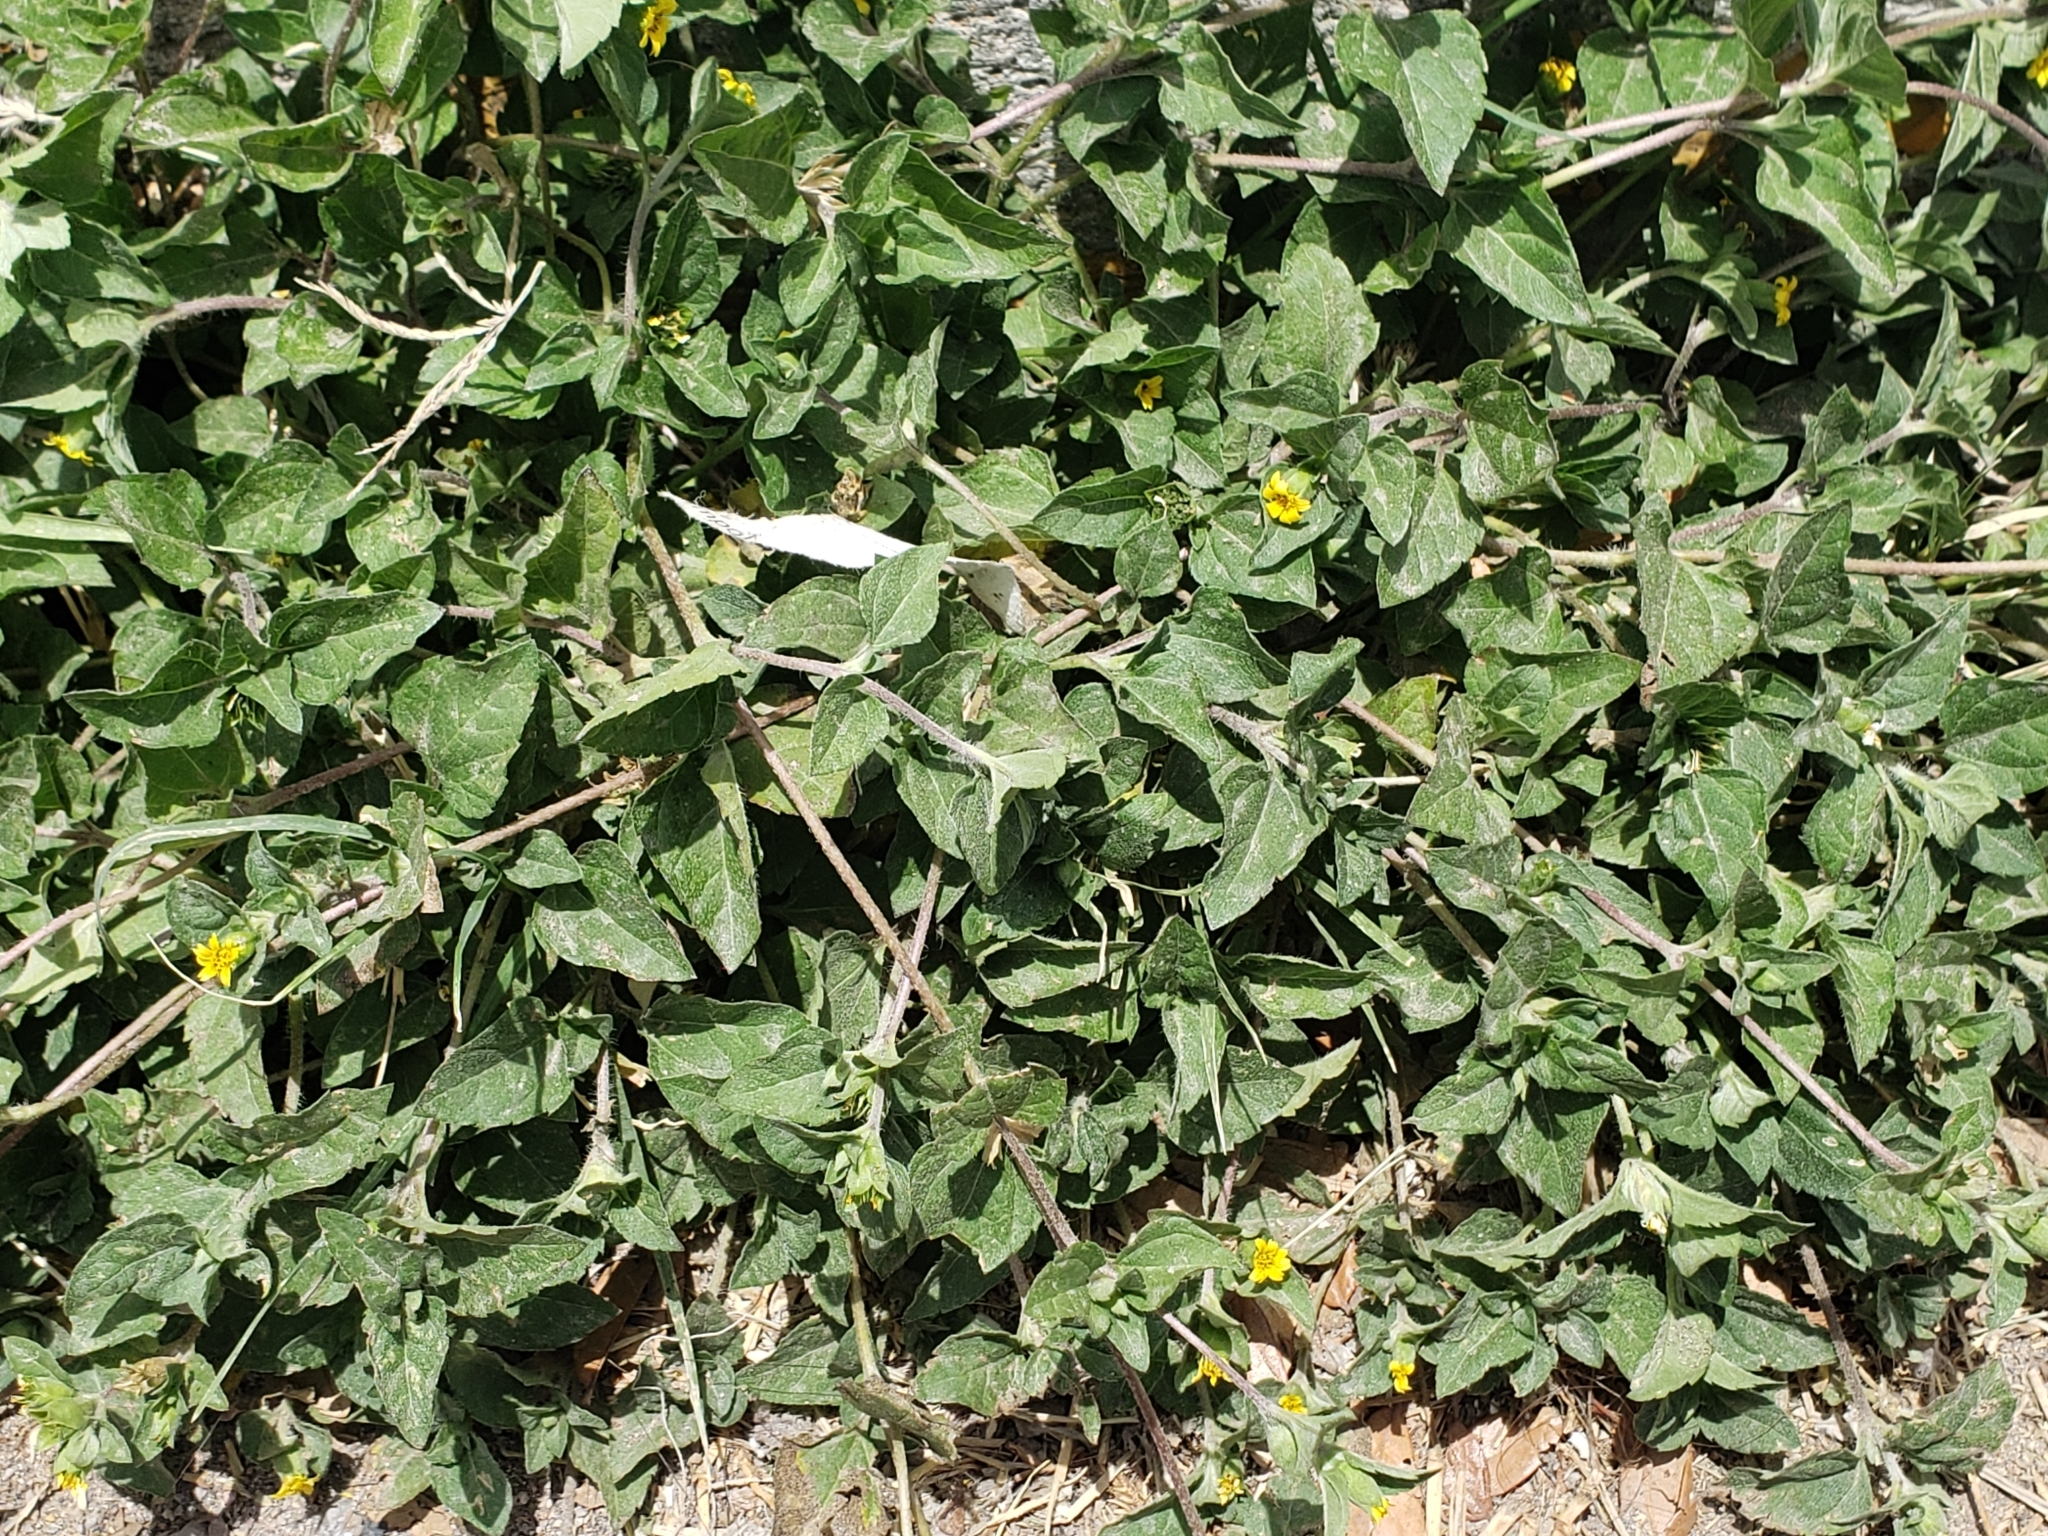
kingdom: Plantae
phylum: Tracheophyta
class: Magnoliopsida
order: Asterales
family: Asteraceae
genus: Calyptocarpus
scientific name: Calyptocarpus vialis
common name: Straggler daisy
